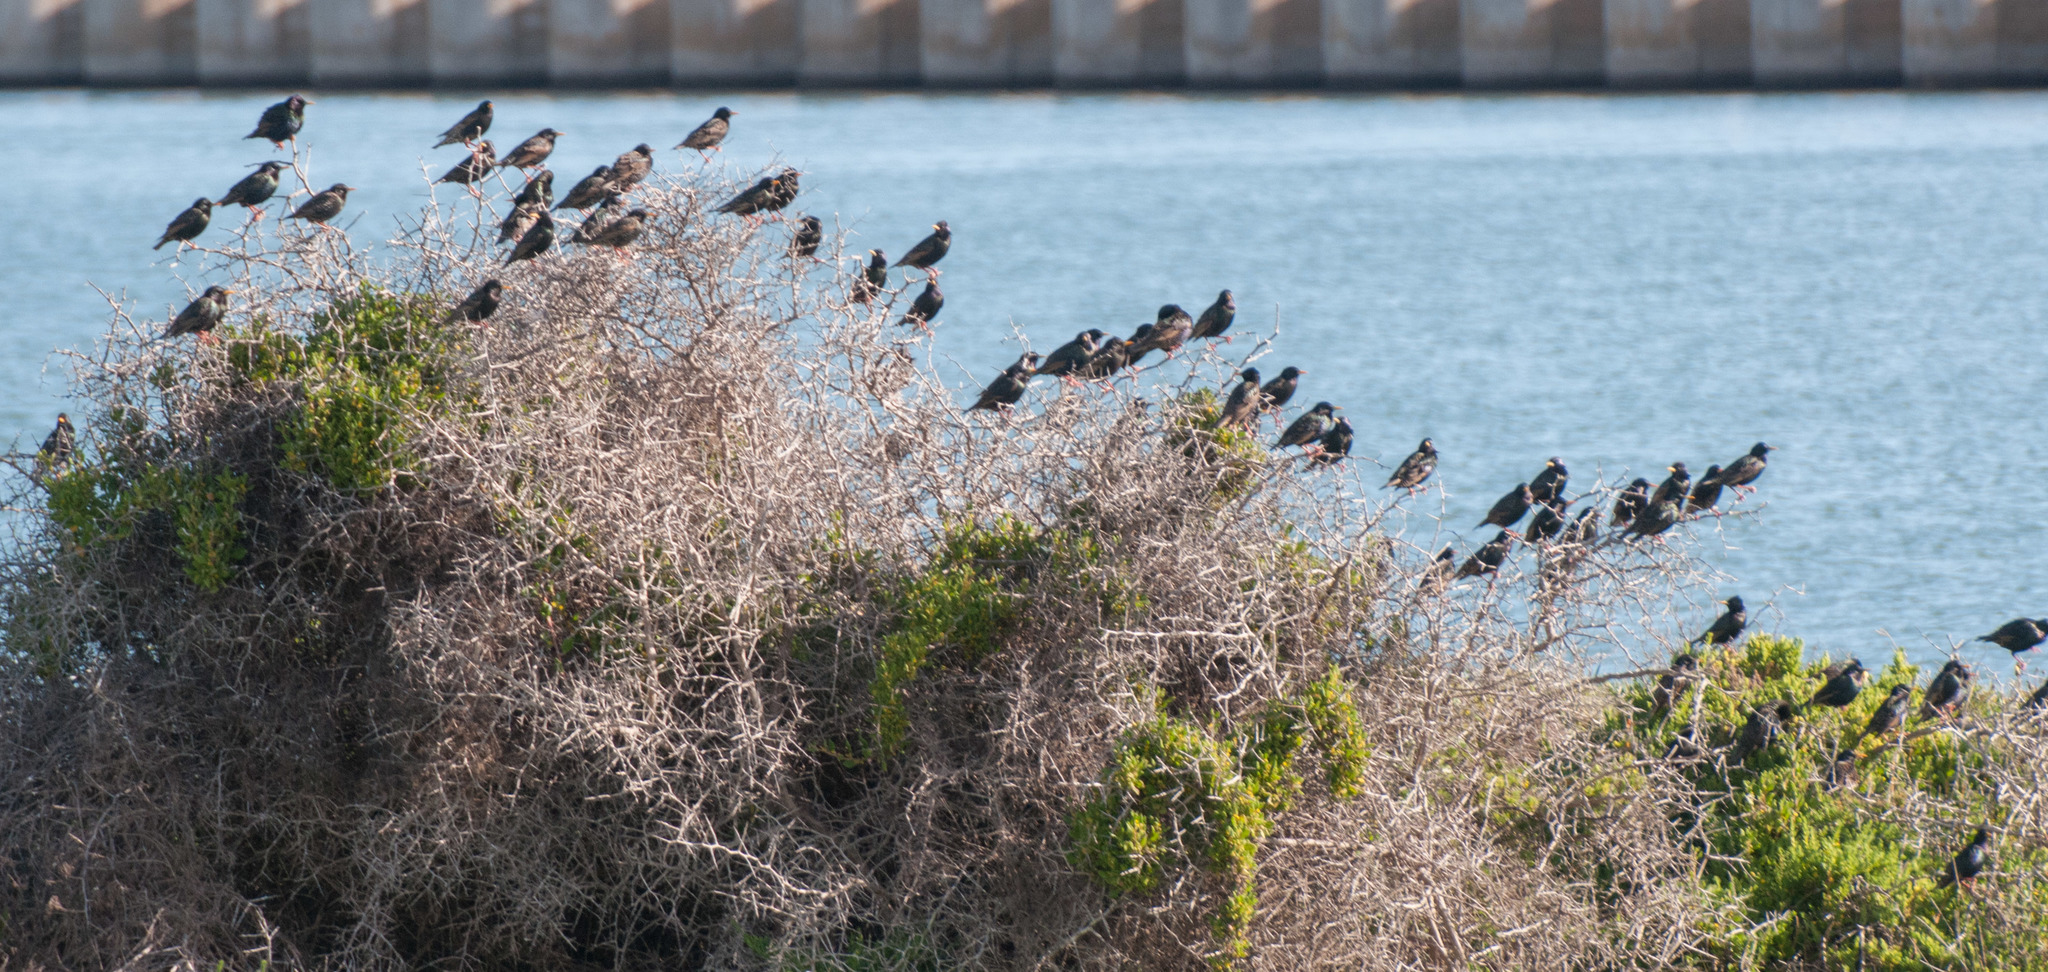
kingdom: Animalia
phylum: Chordata
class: Aves
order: Passeriformes
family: Sturnidae
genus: Sturnus
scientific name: Sturnus vulgaris
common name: Common starling
